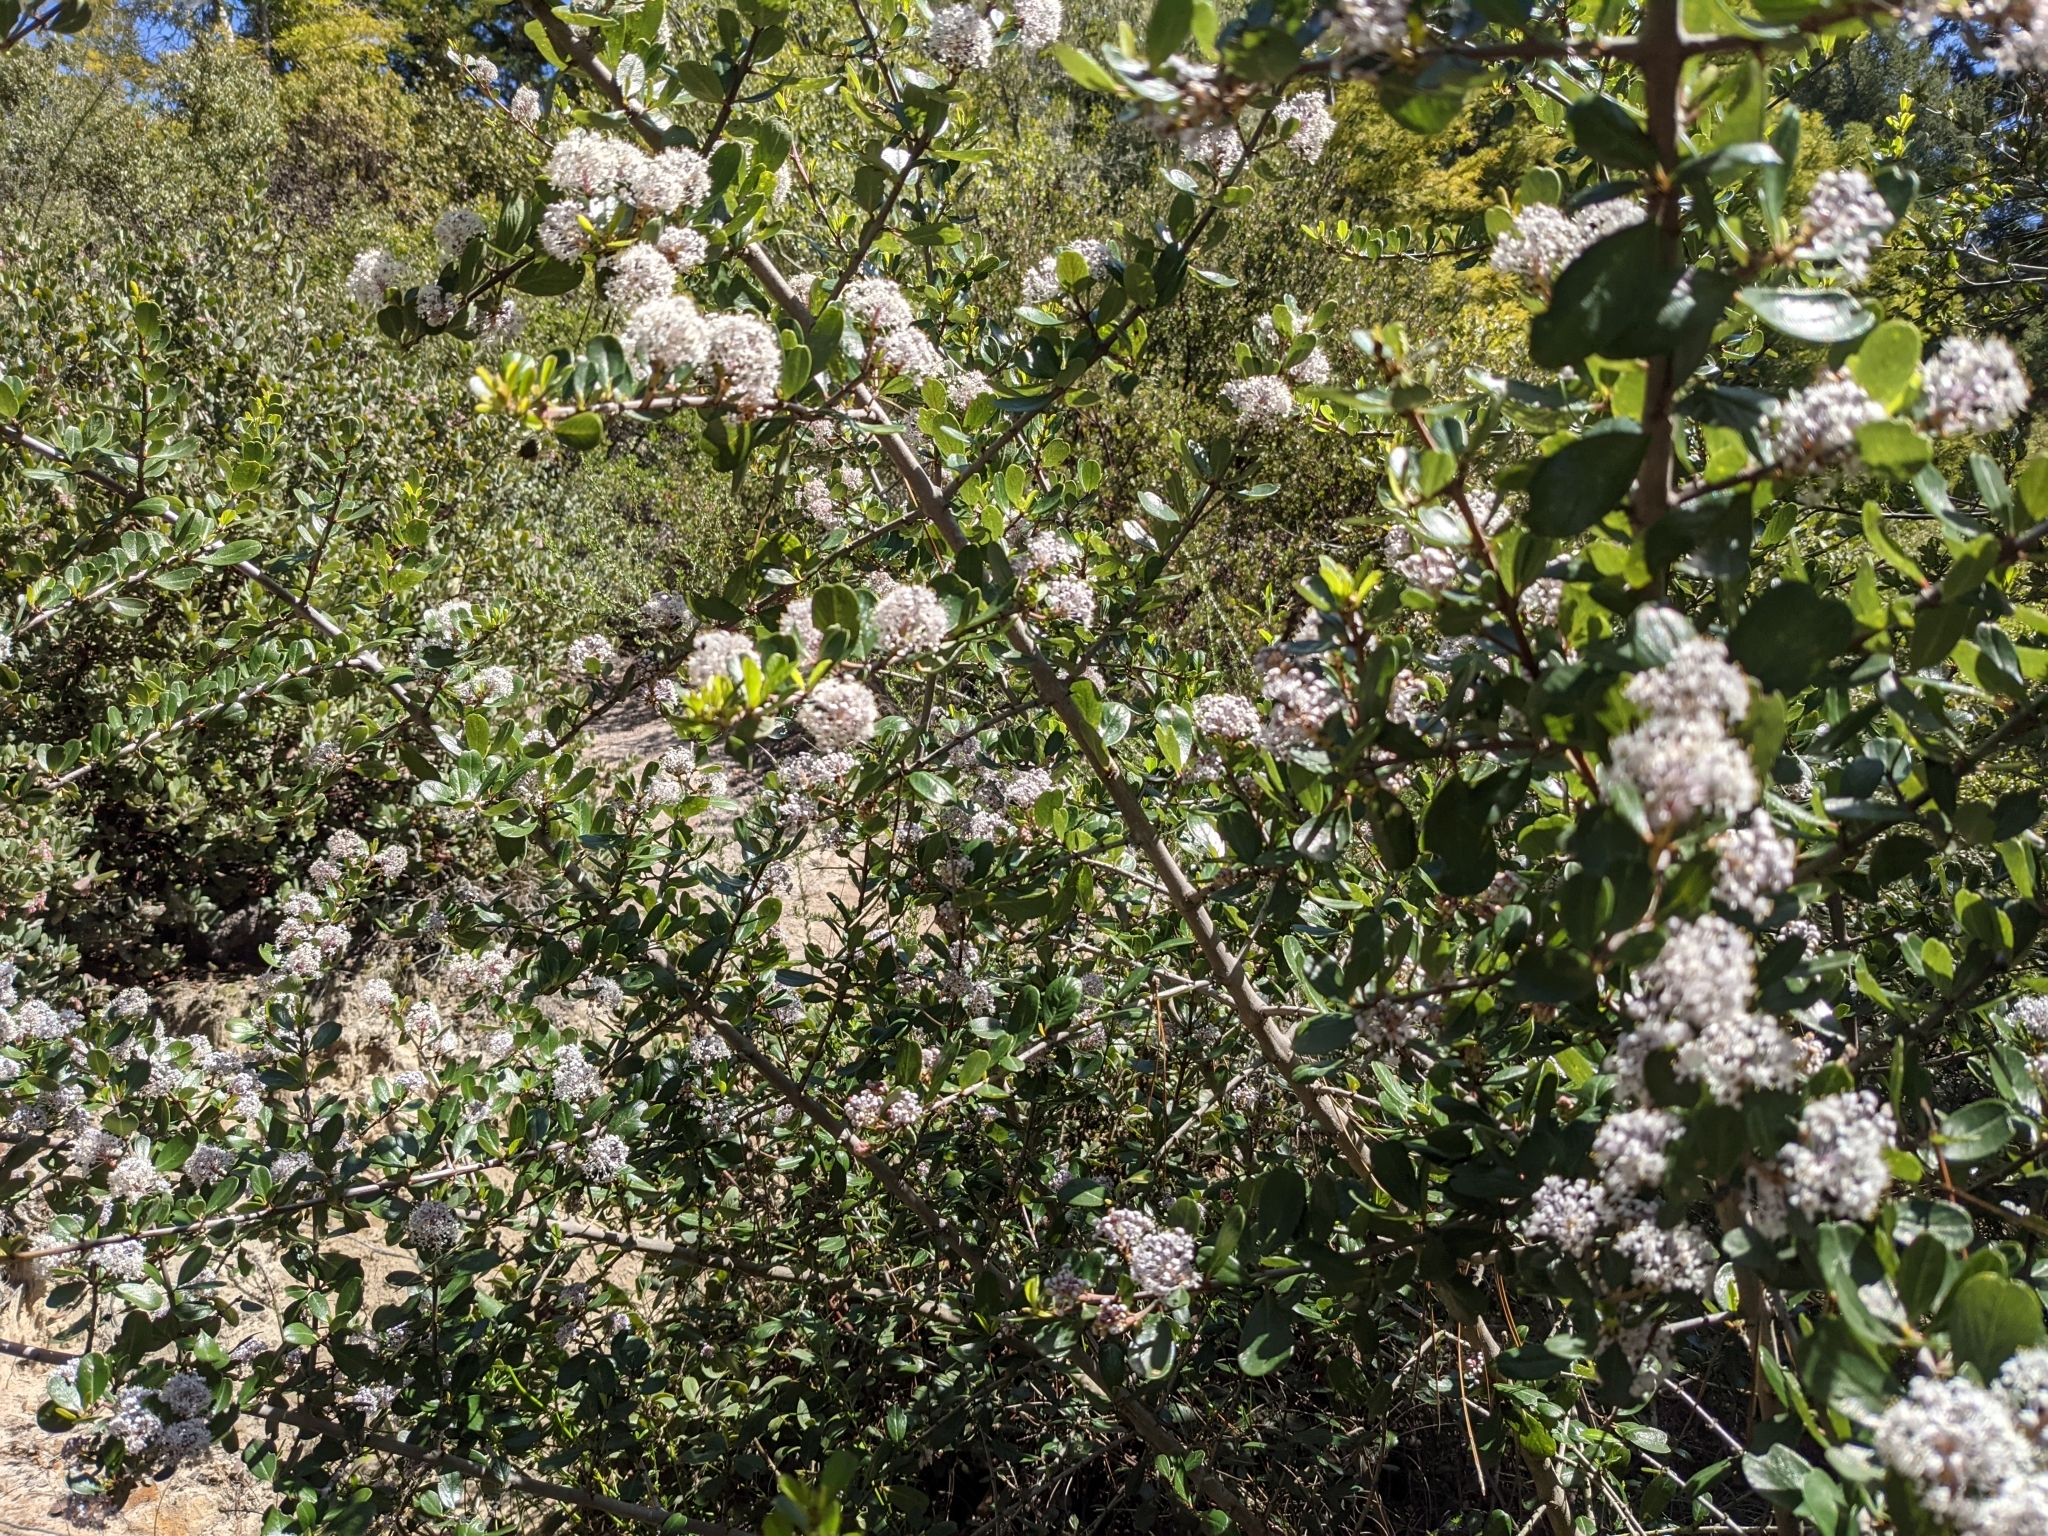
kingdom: Plantae
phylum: Tracheophyta
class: Magnoliopsida
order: Rosales
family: Rhamnaceae
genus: Ceanothus
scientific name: Ceanothus cuneatus
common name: Cuneate ceanothus
